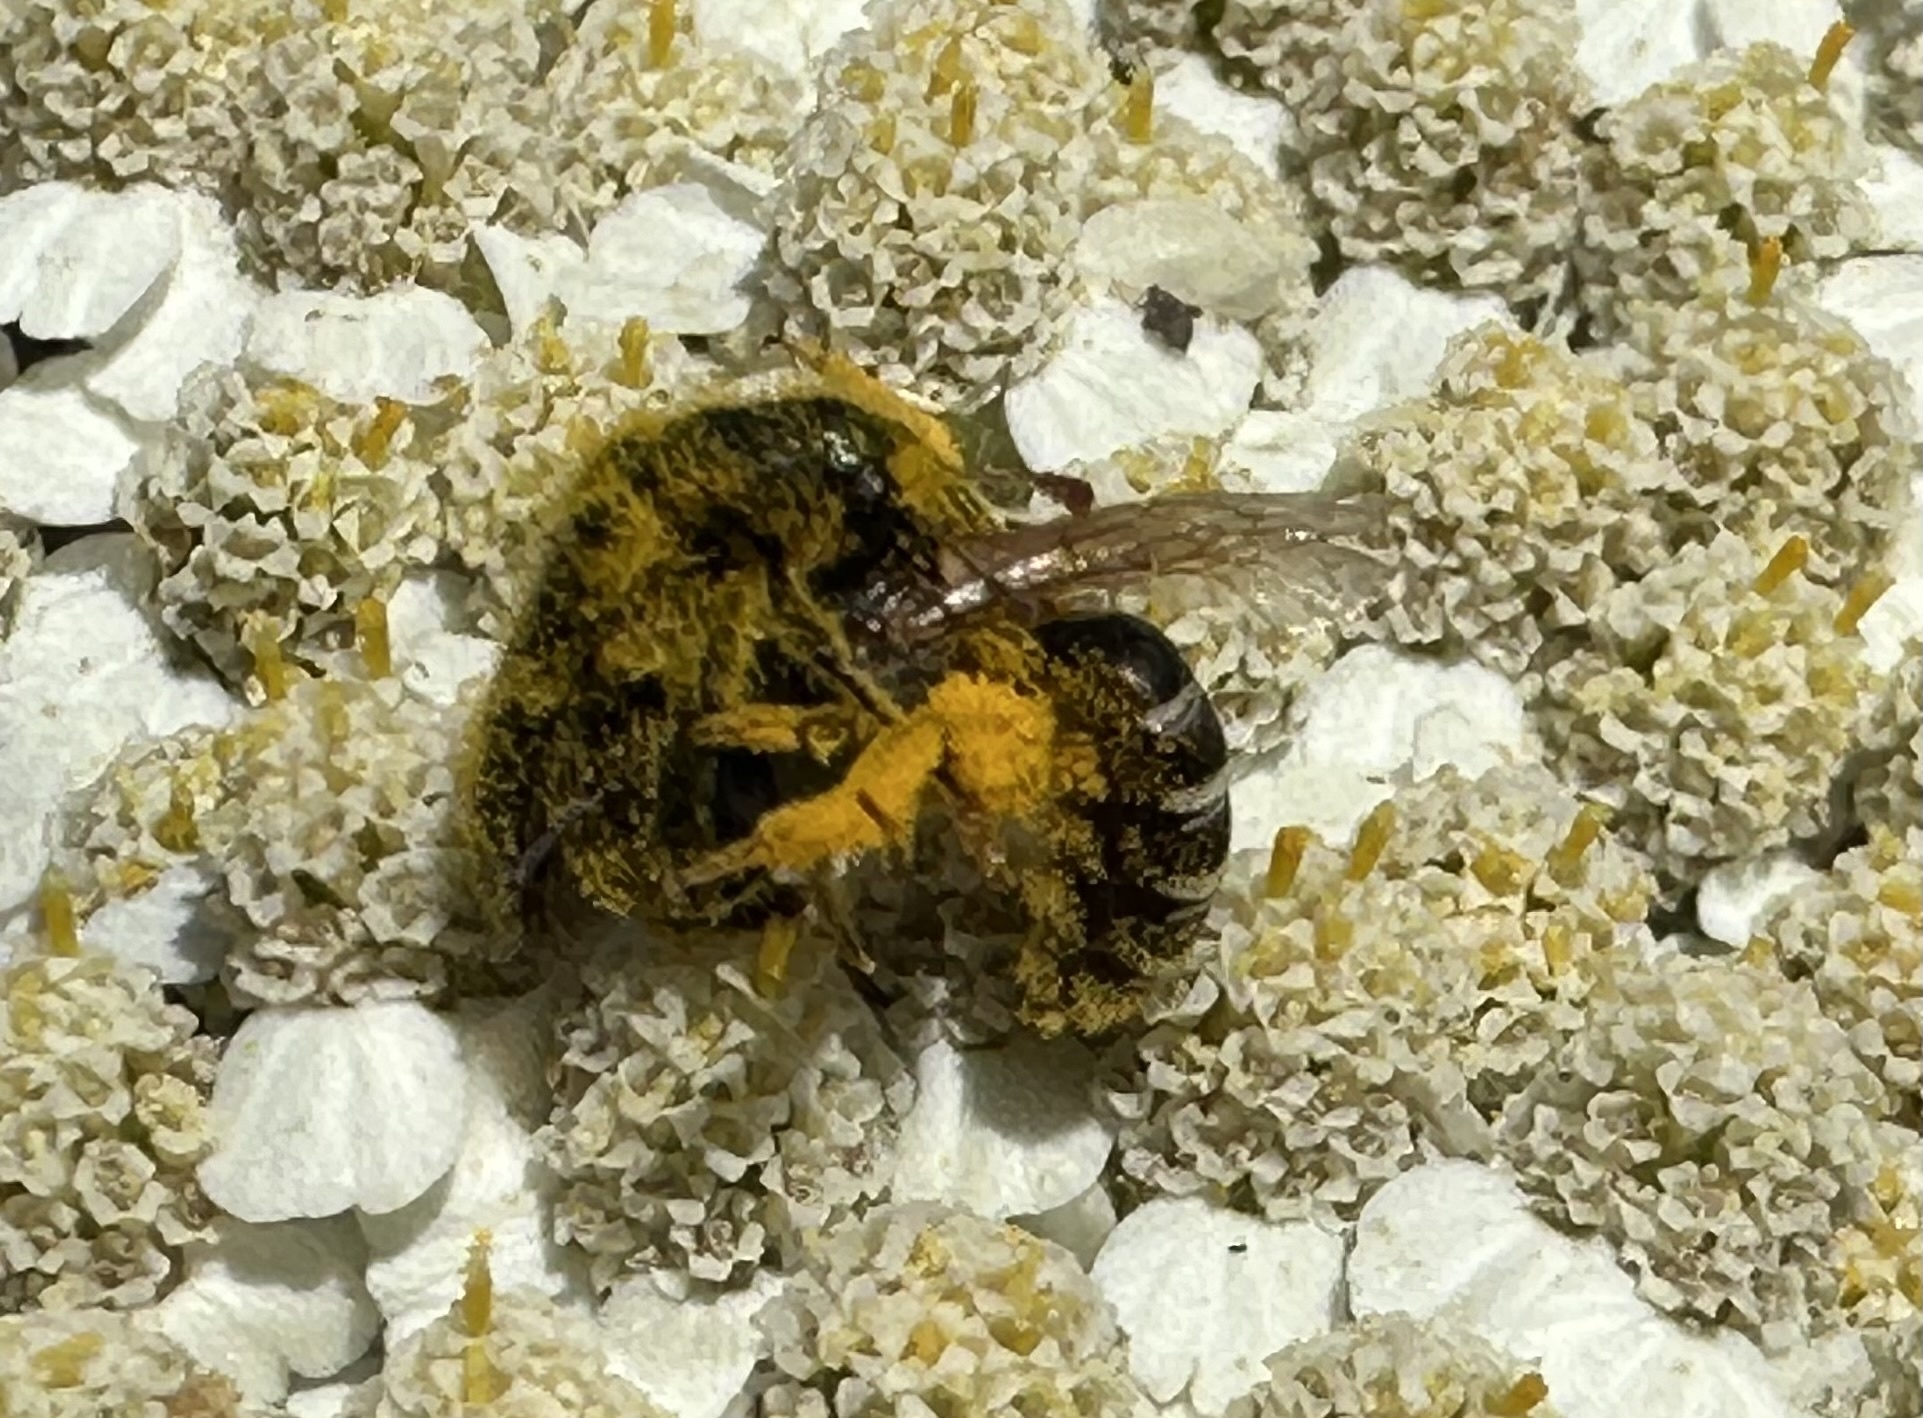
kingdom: Animalia
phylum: Arthropoda
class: Insecta
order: Hymenoptera
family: Halictidae
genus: Halictus
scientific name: Halictus ligatus
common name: Ligated furrow bee
